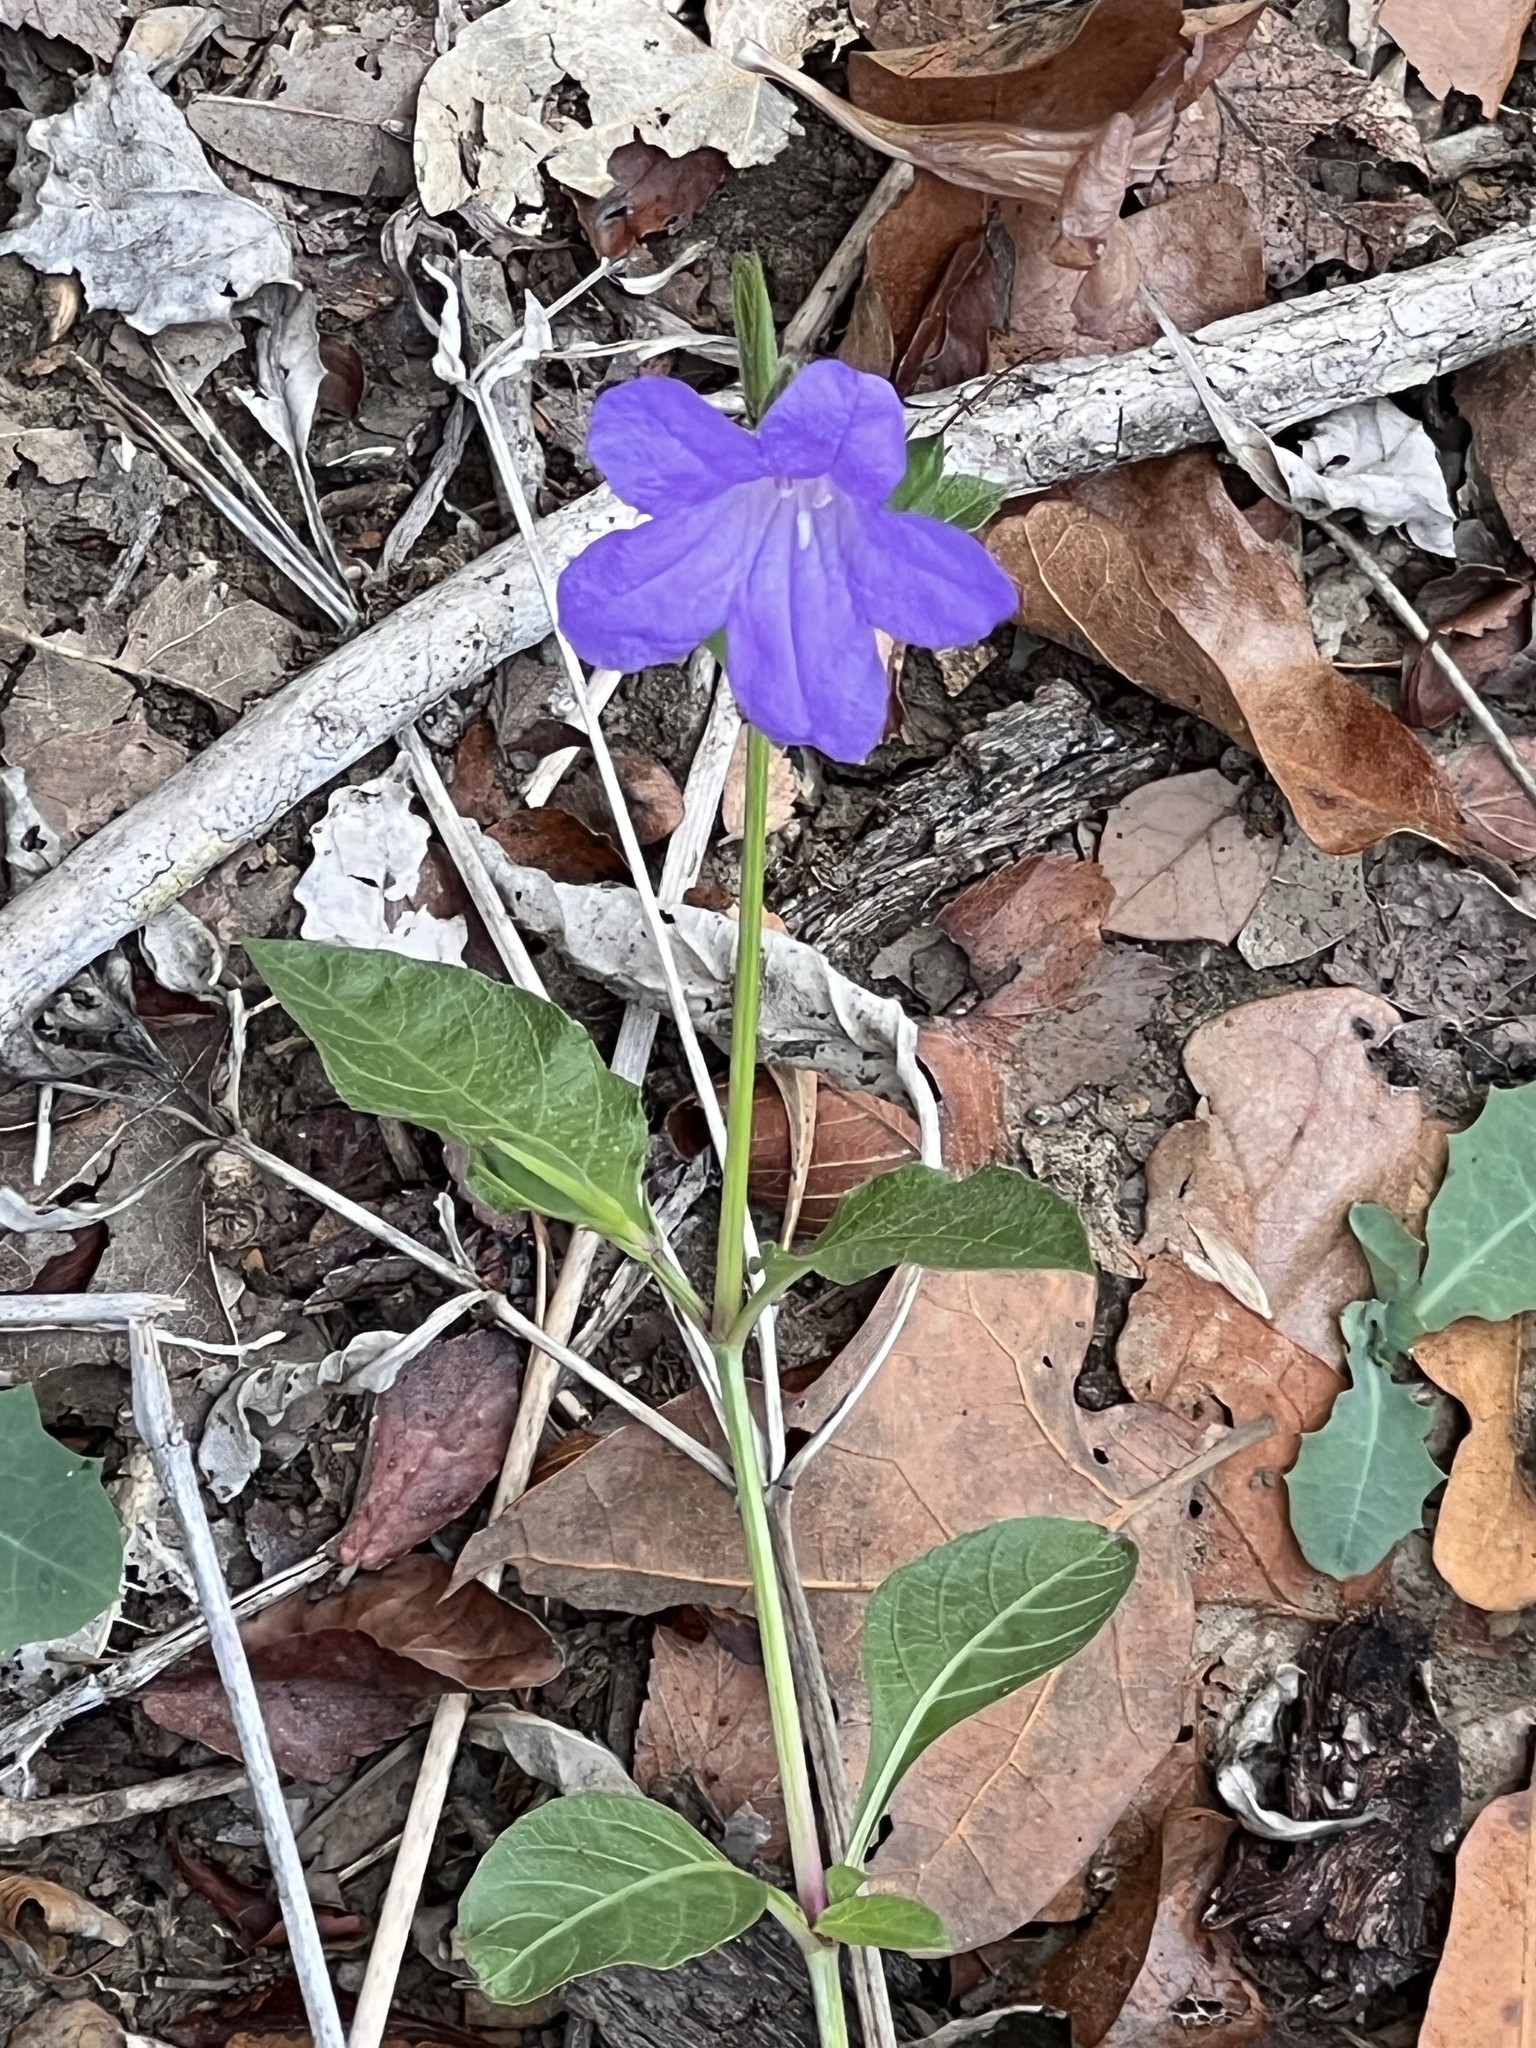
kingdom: Plantae
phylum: Tracheophyta
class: Magnoliopsida
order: Lamiales
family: Acanthaceae
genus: Ruellia
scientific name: Ruellia ciliatiflora
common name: Hairyflower wild petunia
